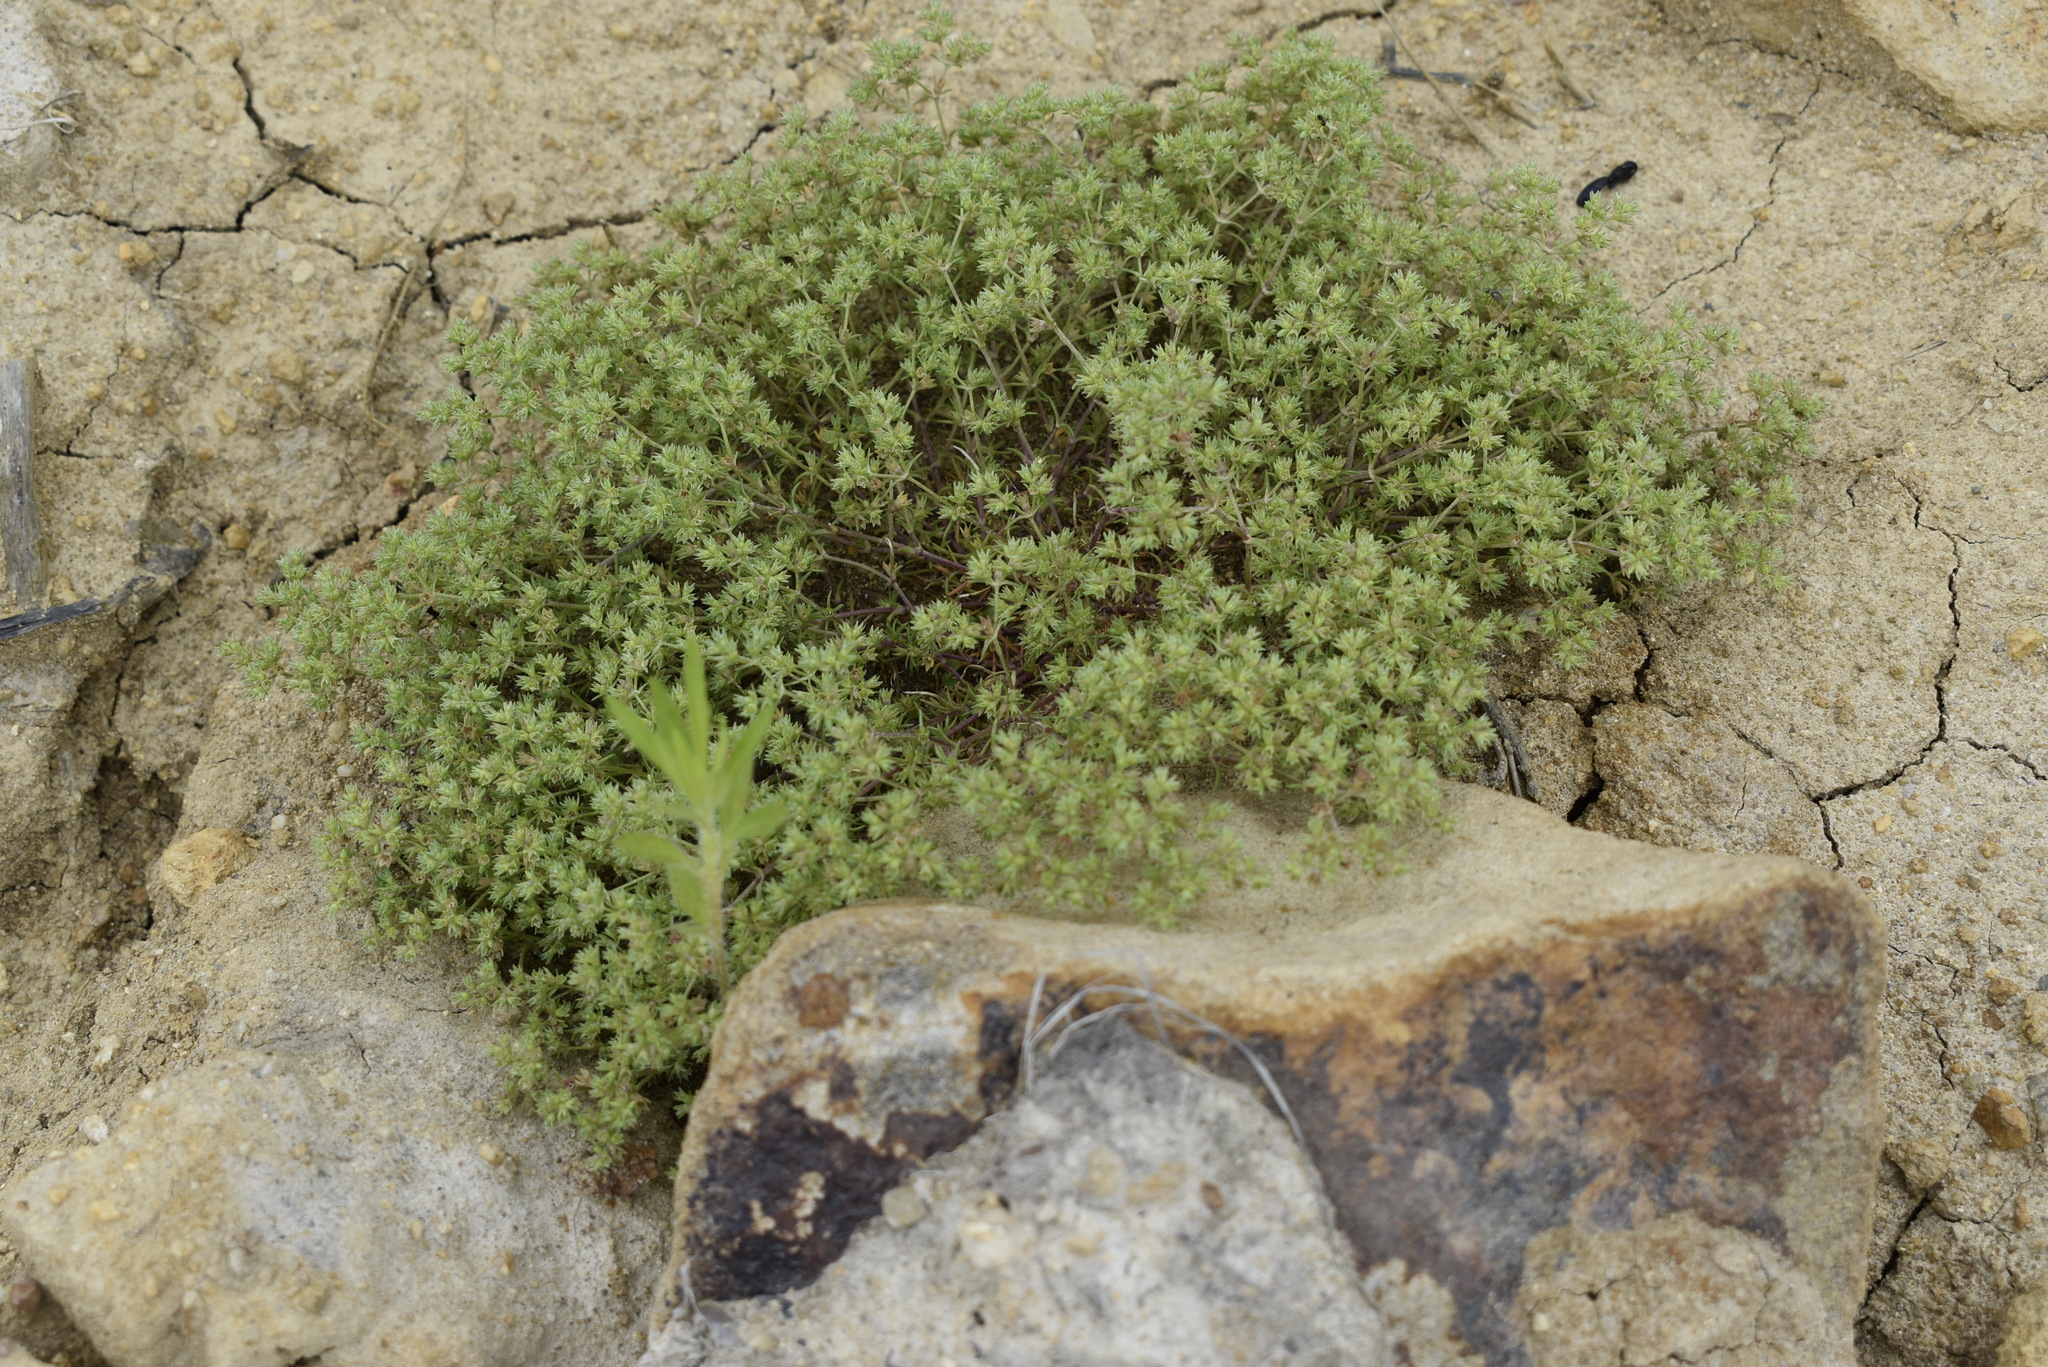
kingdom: Plantae
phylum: Tracheophyta
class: Magnoliopsida
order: Caryophyllales
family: Caryophyllaceae
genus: Scleranthus
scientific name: Scleranthus annuus
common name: Annual knawel
